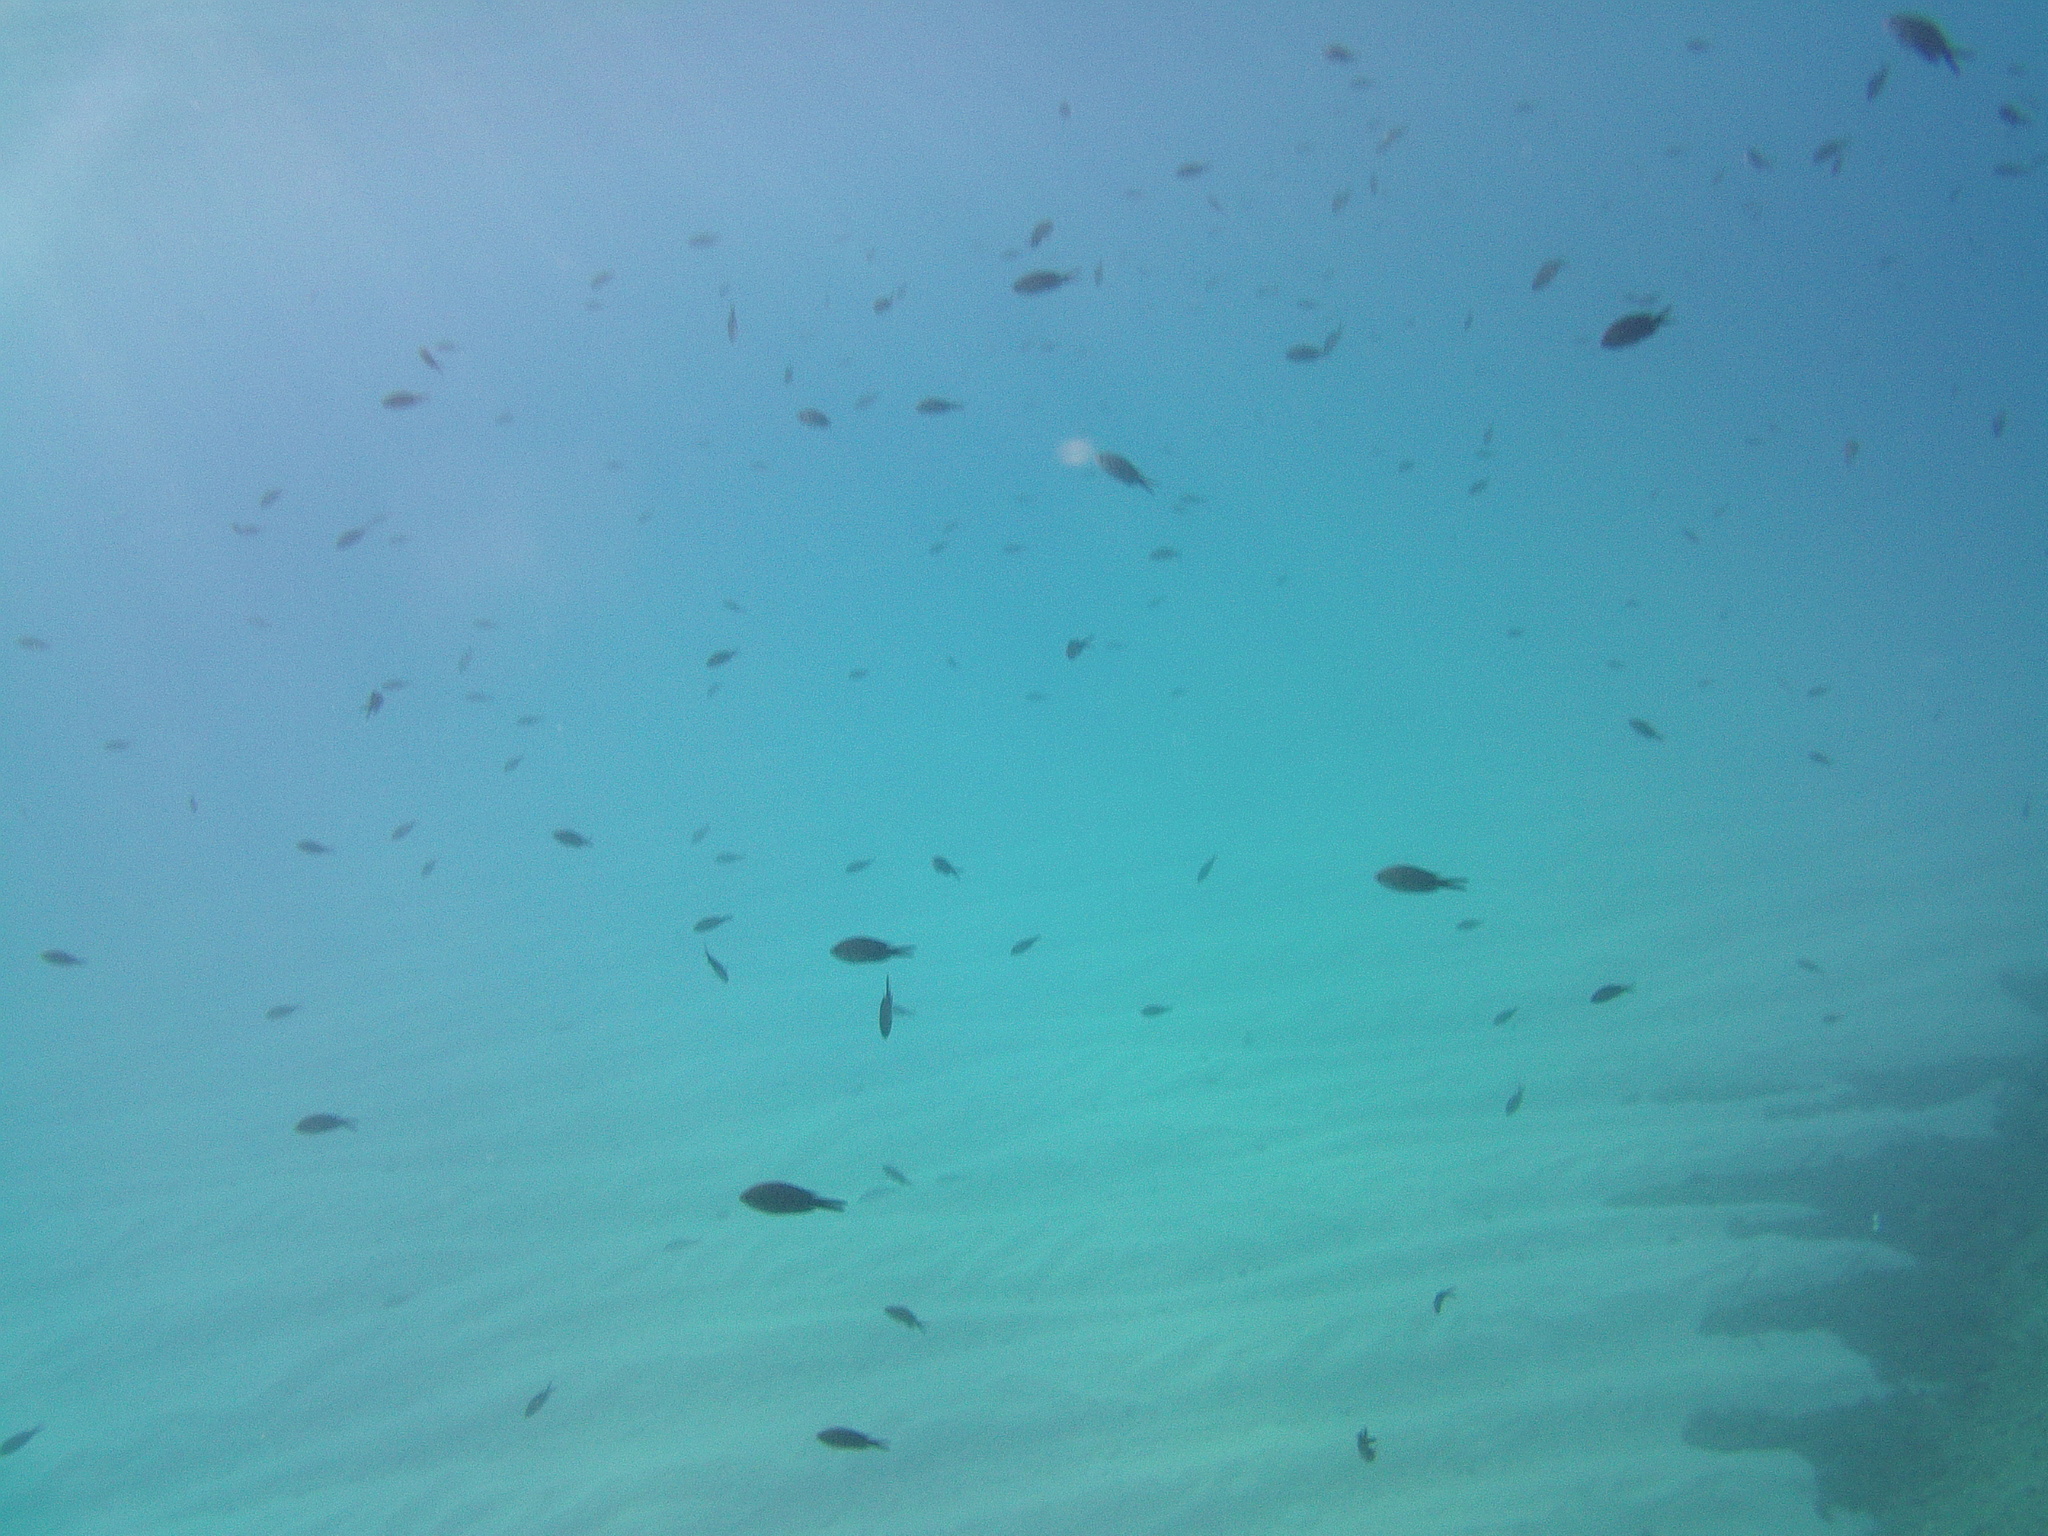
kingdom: Animalia
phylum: Chordata
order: Perciformes
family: Pomacentridae
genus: Chromis
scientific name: Chromis chromis
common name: Damselfish
